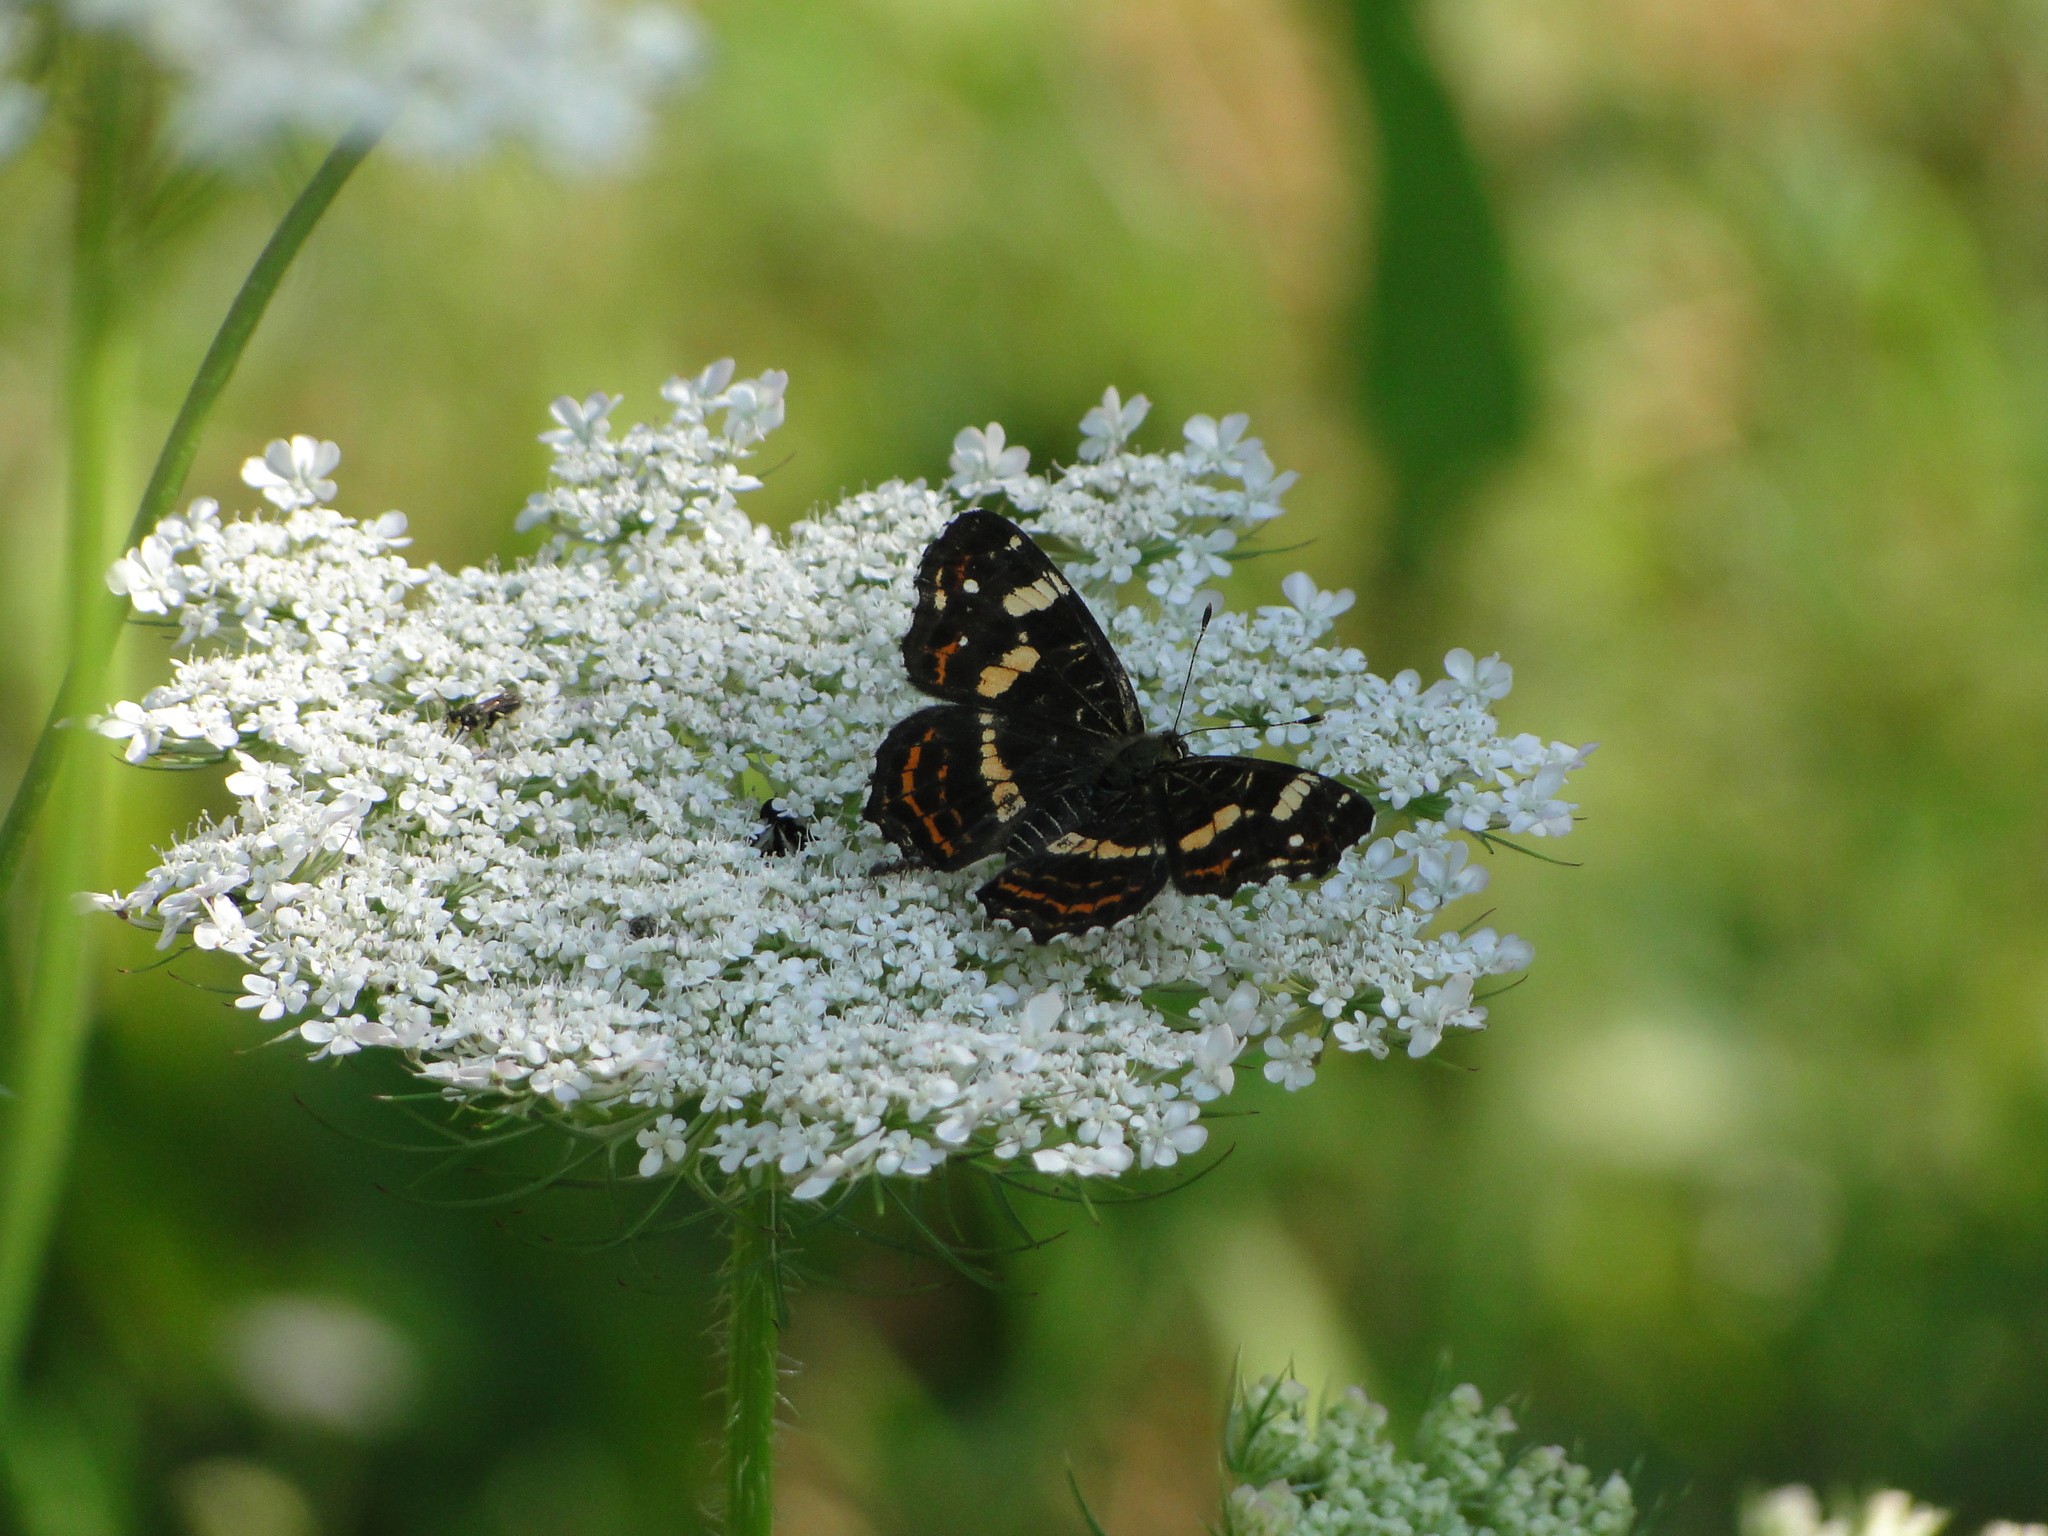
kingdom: Animalia
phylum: Arthropoda
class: Insecta
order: Lepidoptera
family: Nymphalidae
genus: Araschnia
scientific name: Araschnia levana
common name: Map butterfly
